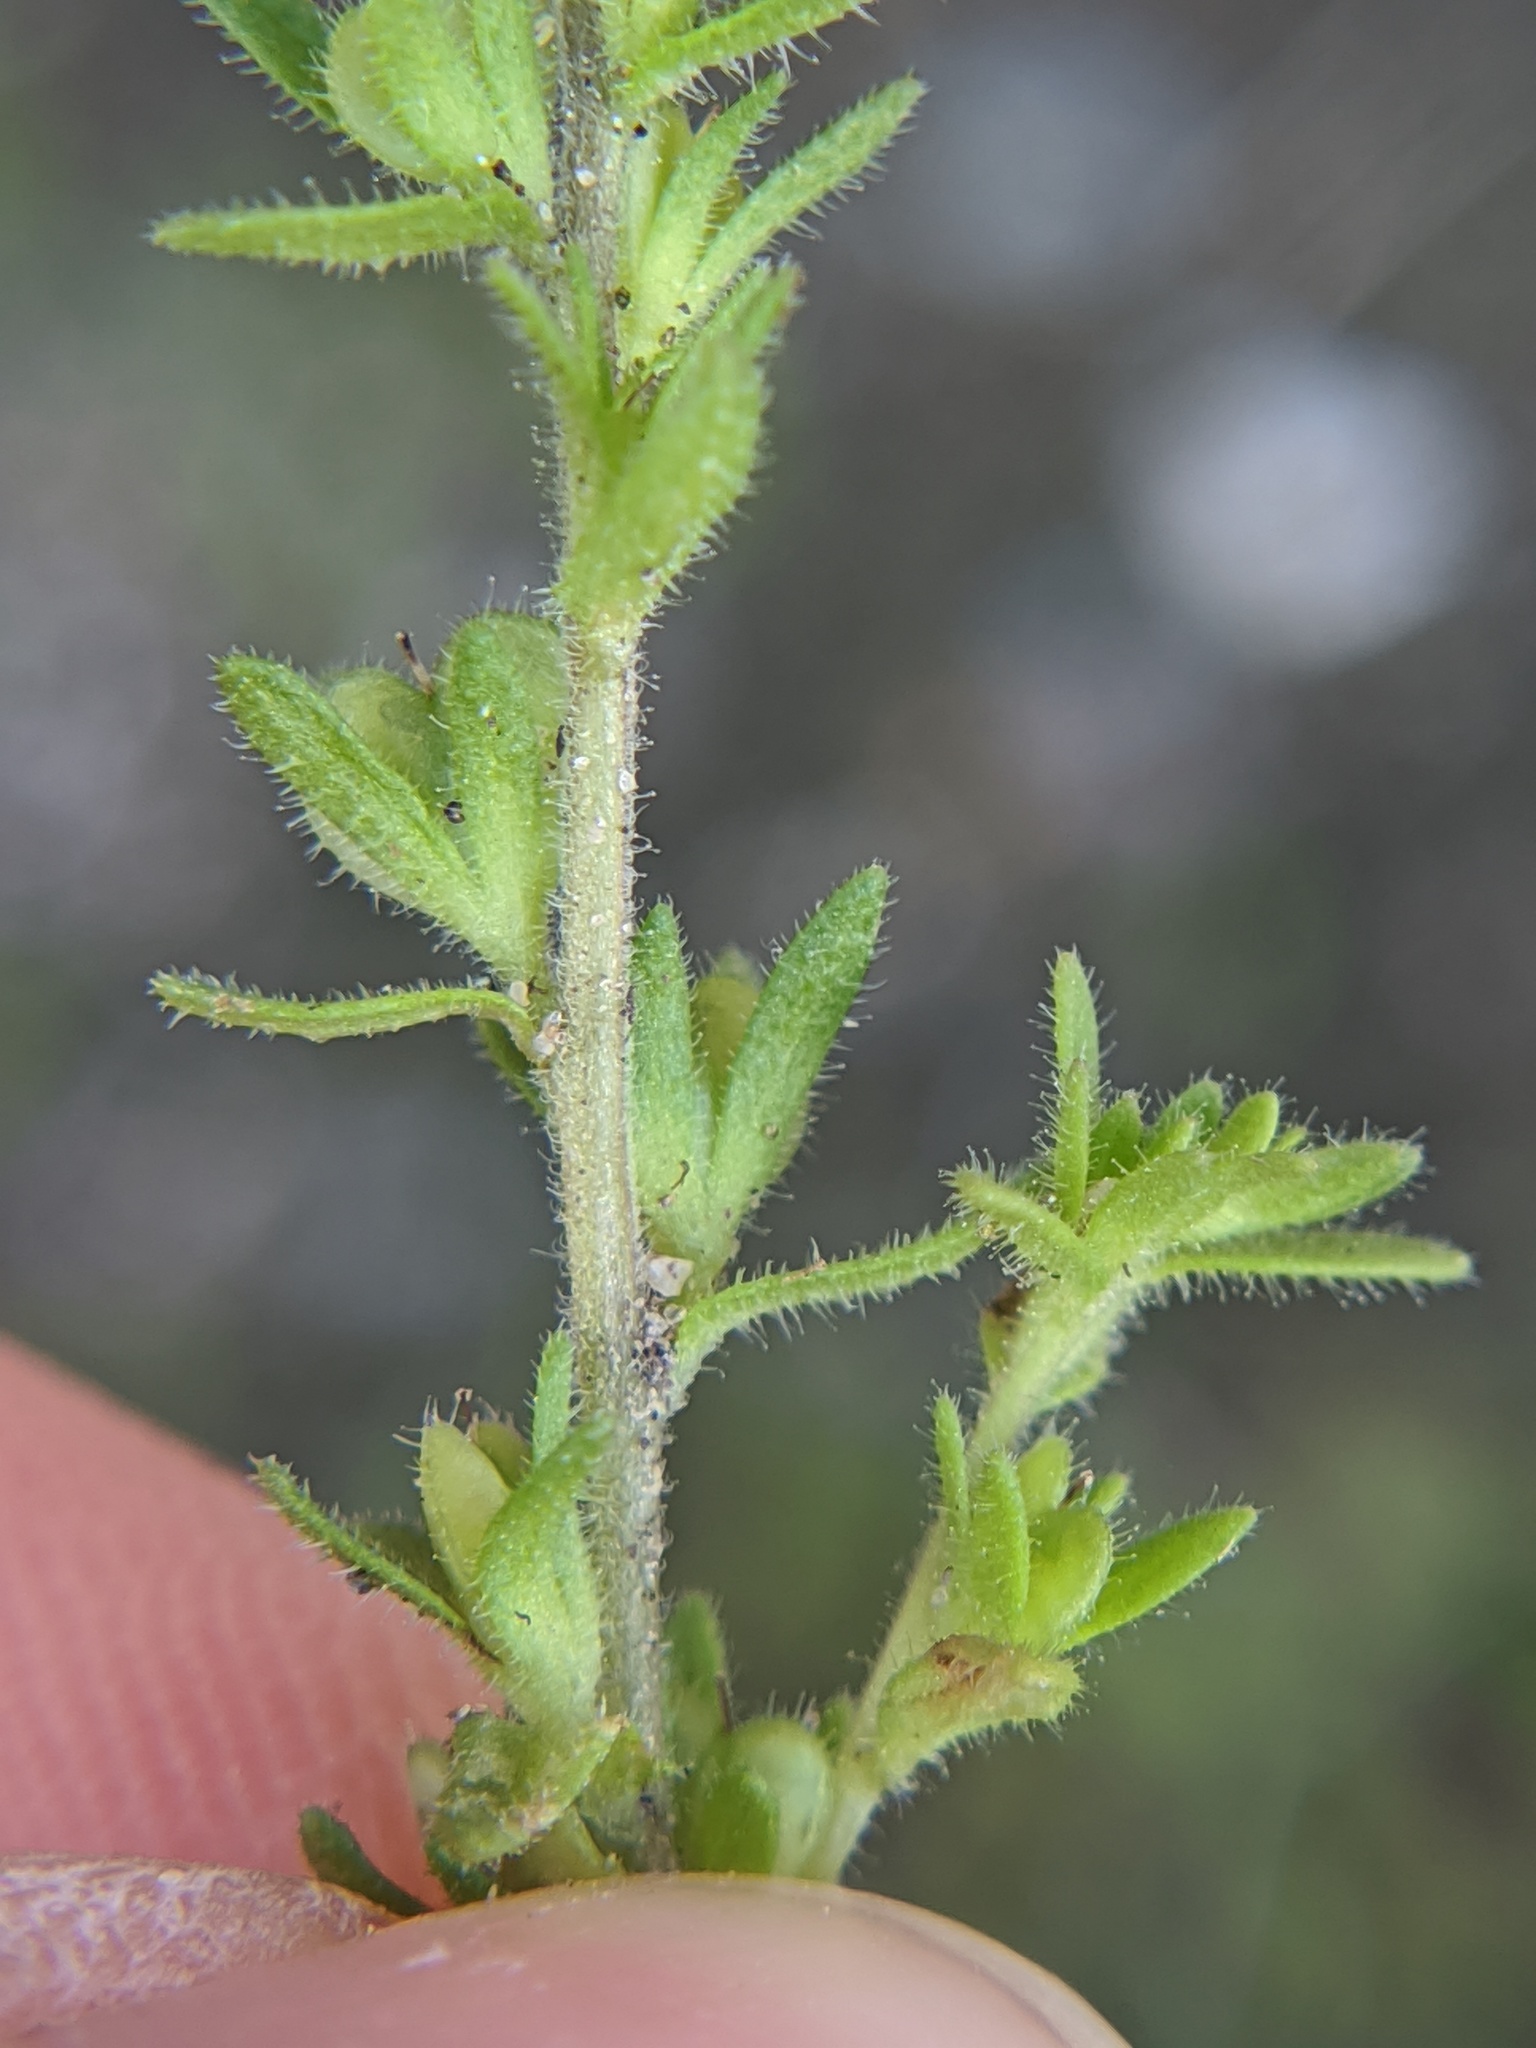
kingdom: Plantae
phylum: Tracheophyta
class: Magnoliopsida
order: Lamiales
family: Plantaginaceae
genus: Veronica
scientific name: Veronica arvensis
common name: Corn speedwell
